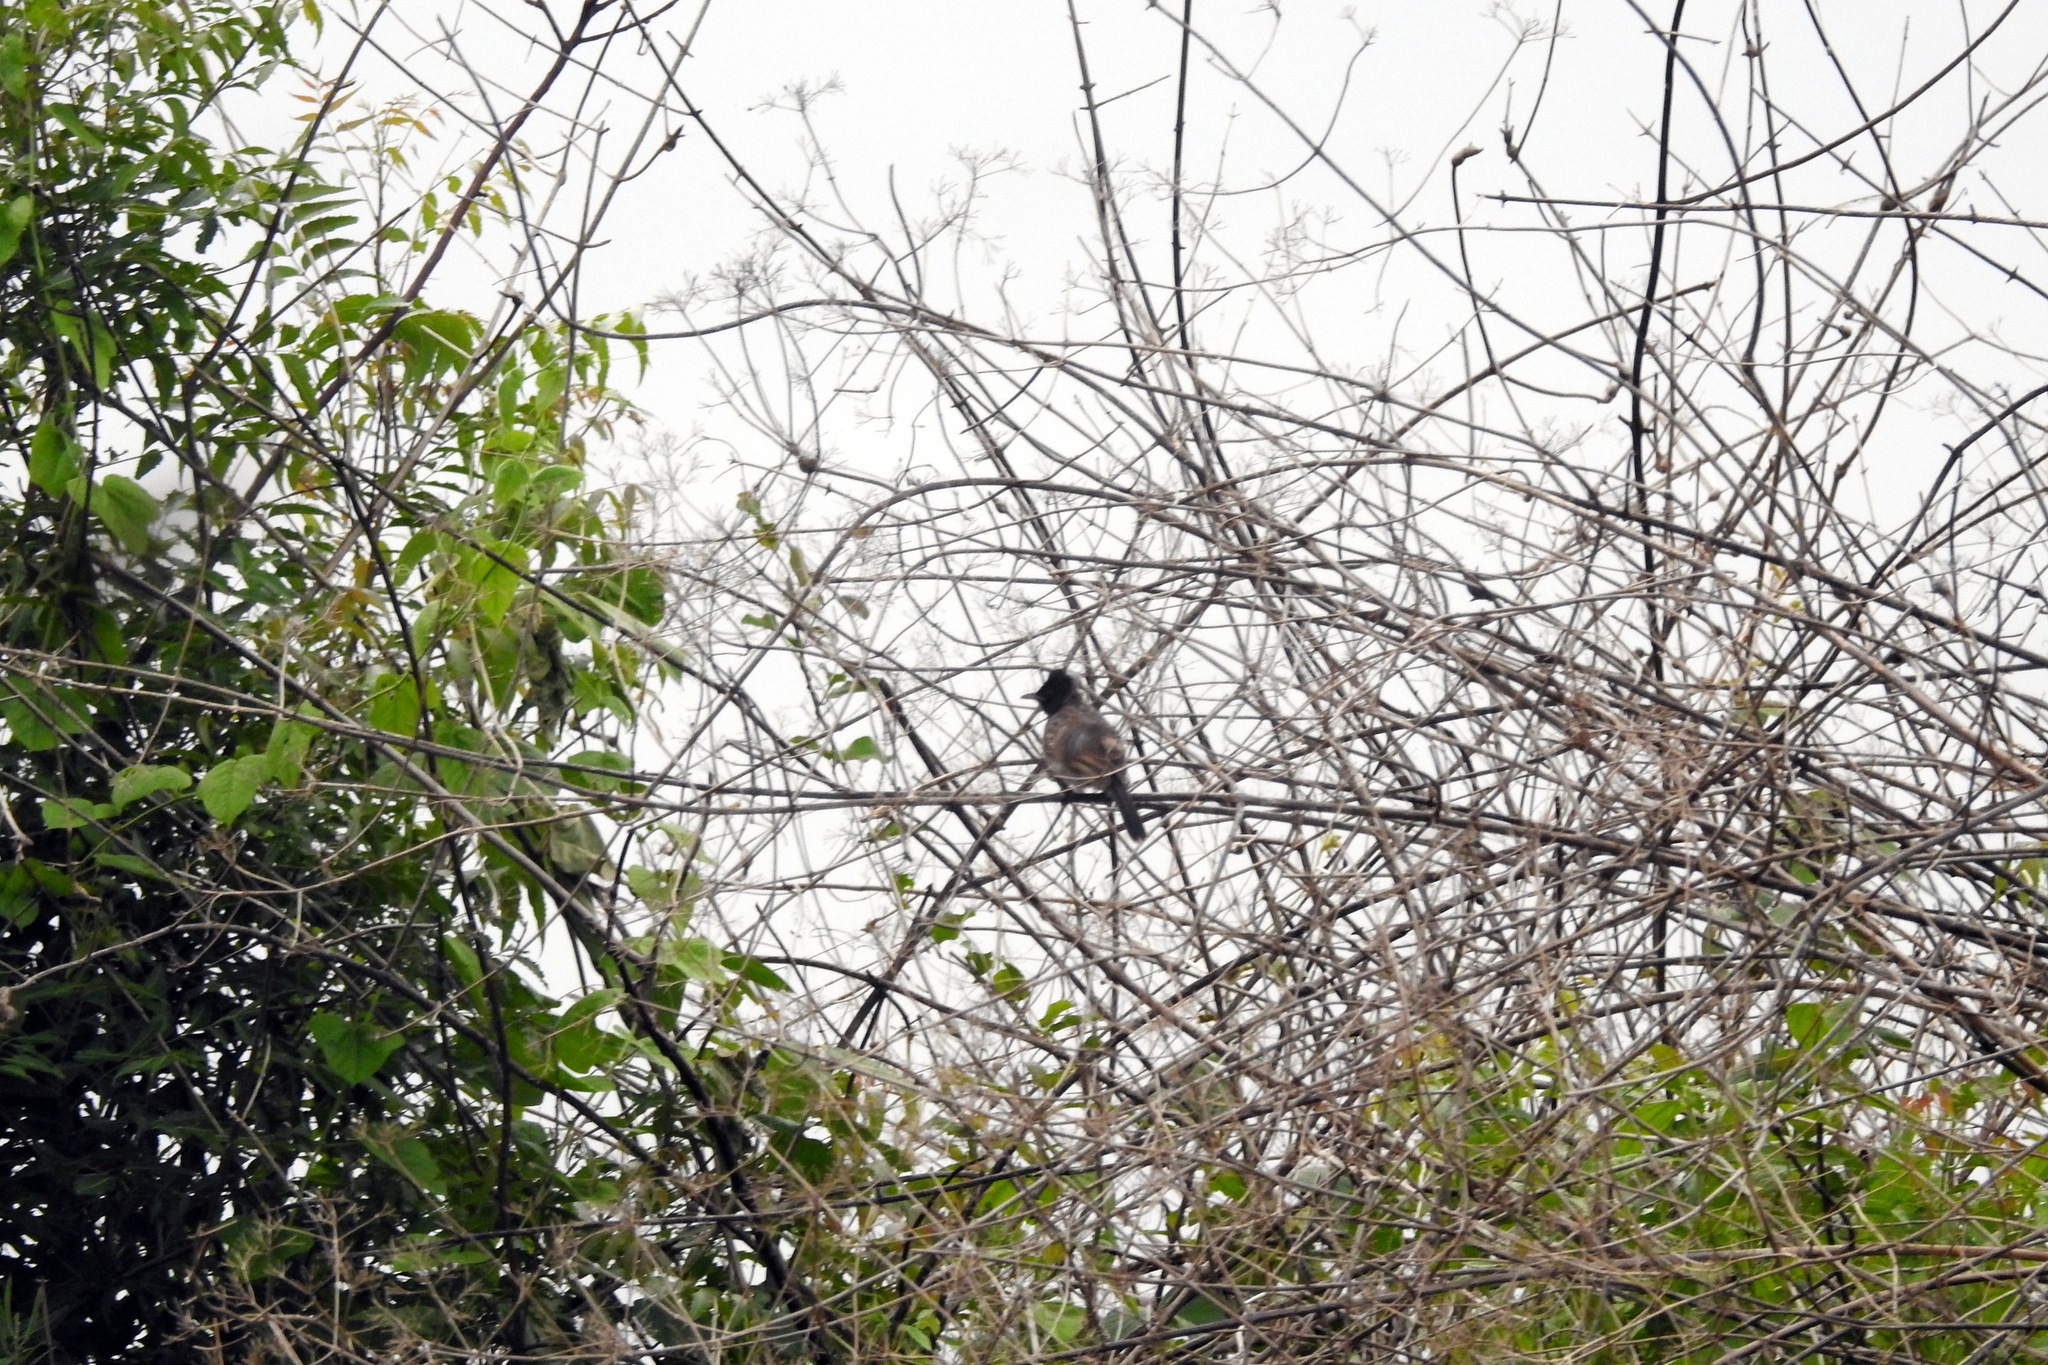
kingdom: Animalia
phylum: Chordata
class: Aves
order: Passeriformes
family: Pycnonotidae
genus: Pycnonotus
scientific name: Pycnonotus cafer
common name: Red-vented bulbul
